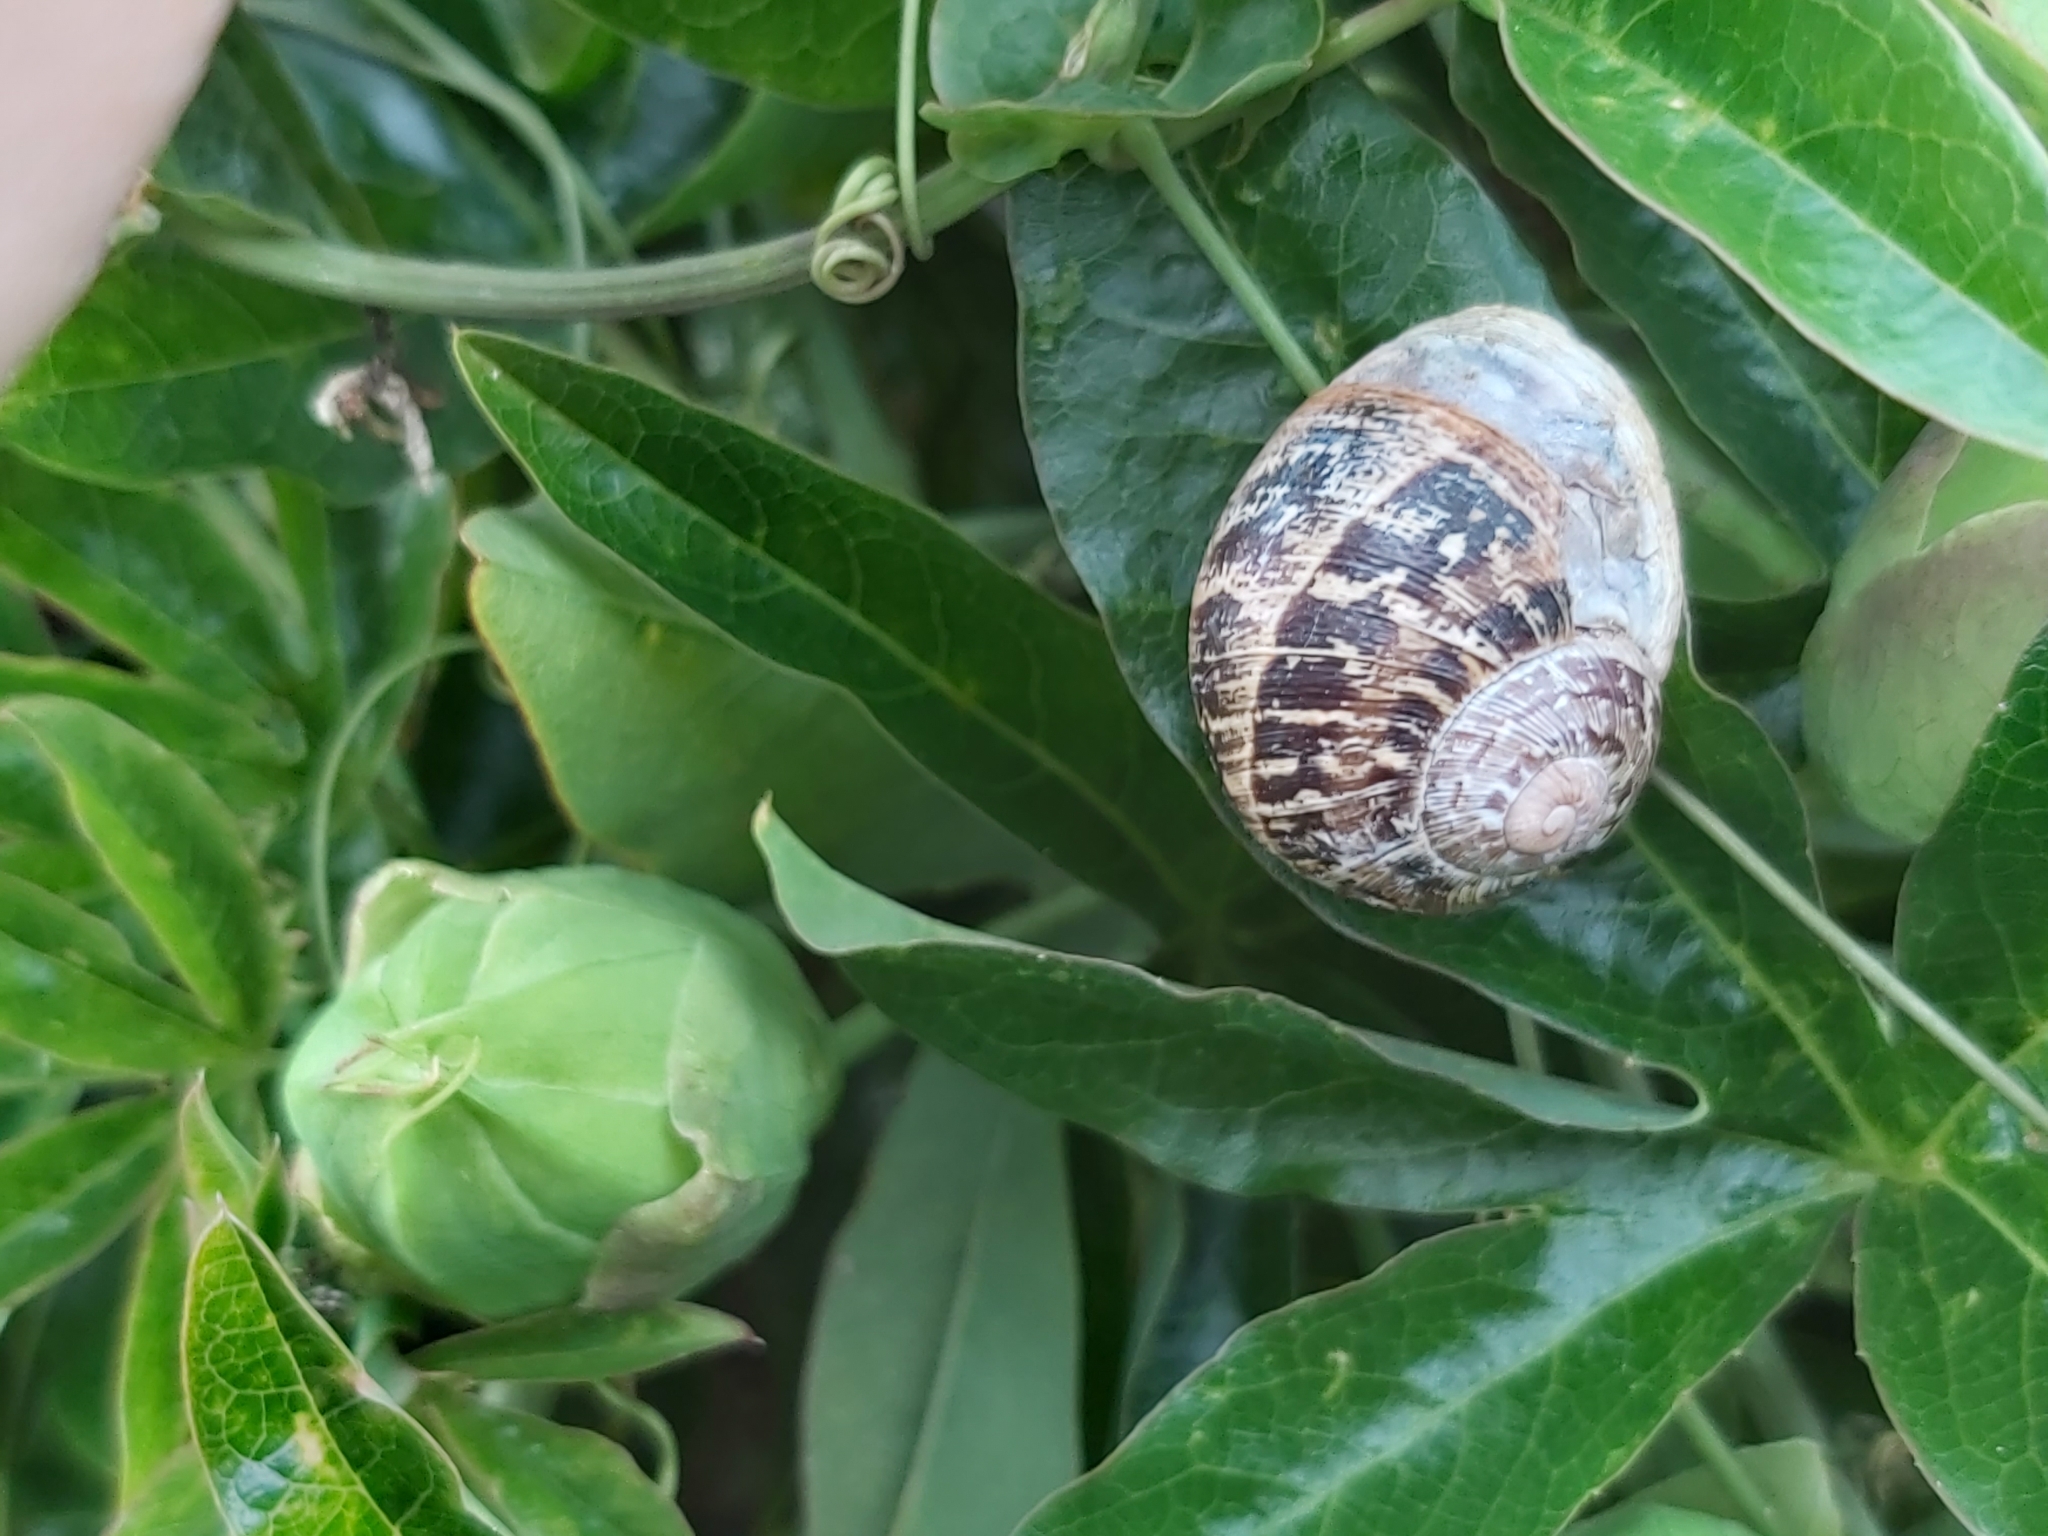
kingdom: Animalia
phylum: Mollusca
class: Gastropoda
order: Stylommatophora
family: Helicidae
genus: Cornu
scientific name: Cornu aspersum
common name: Brown garden snail
